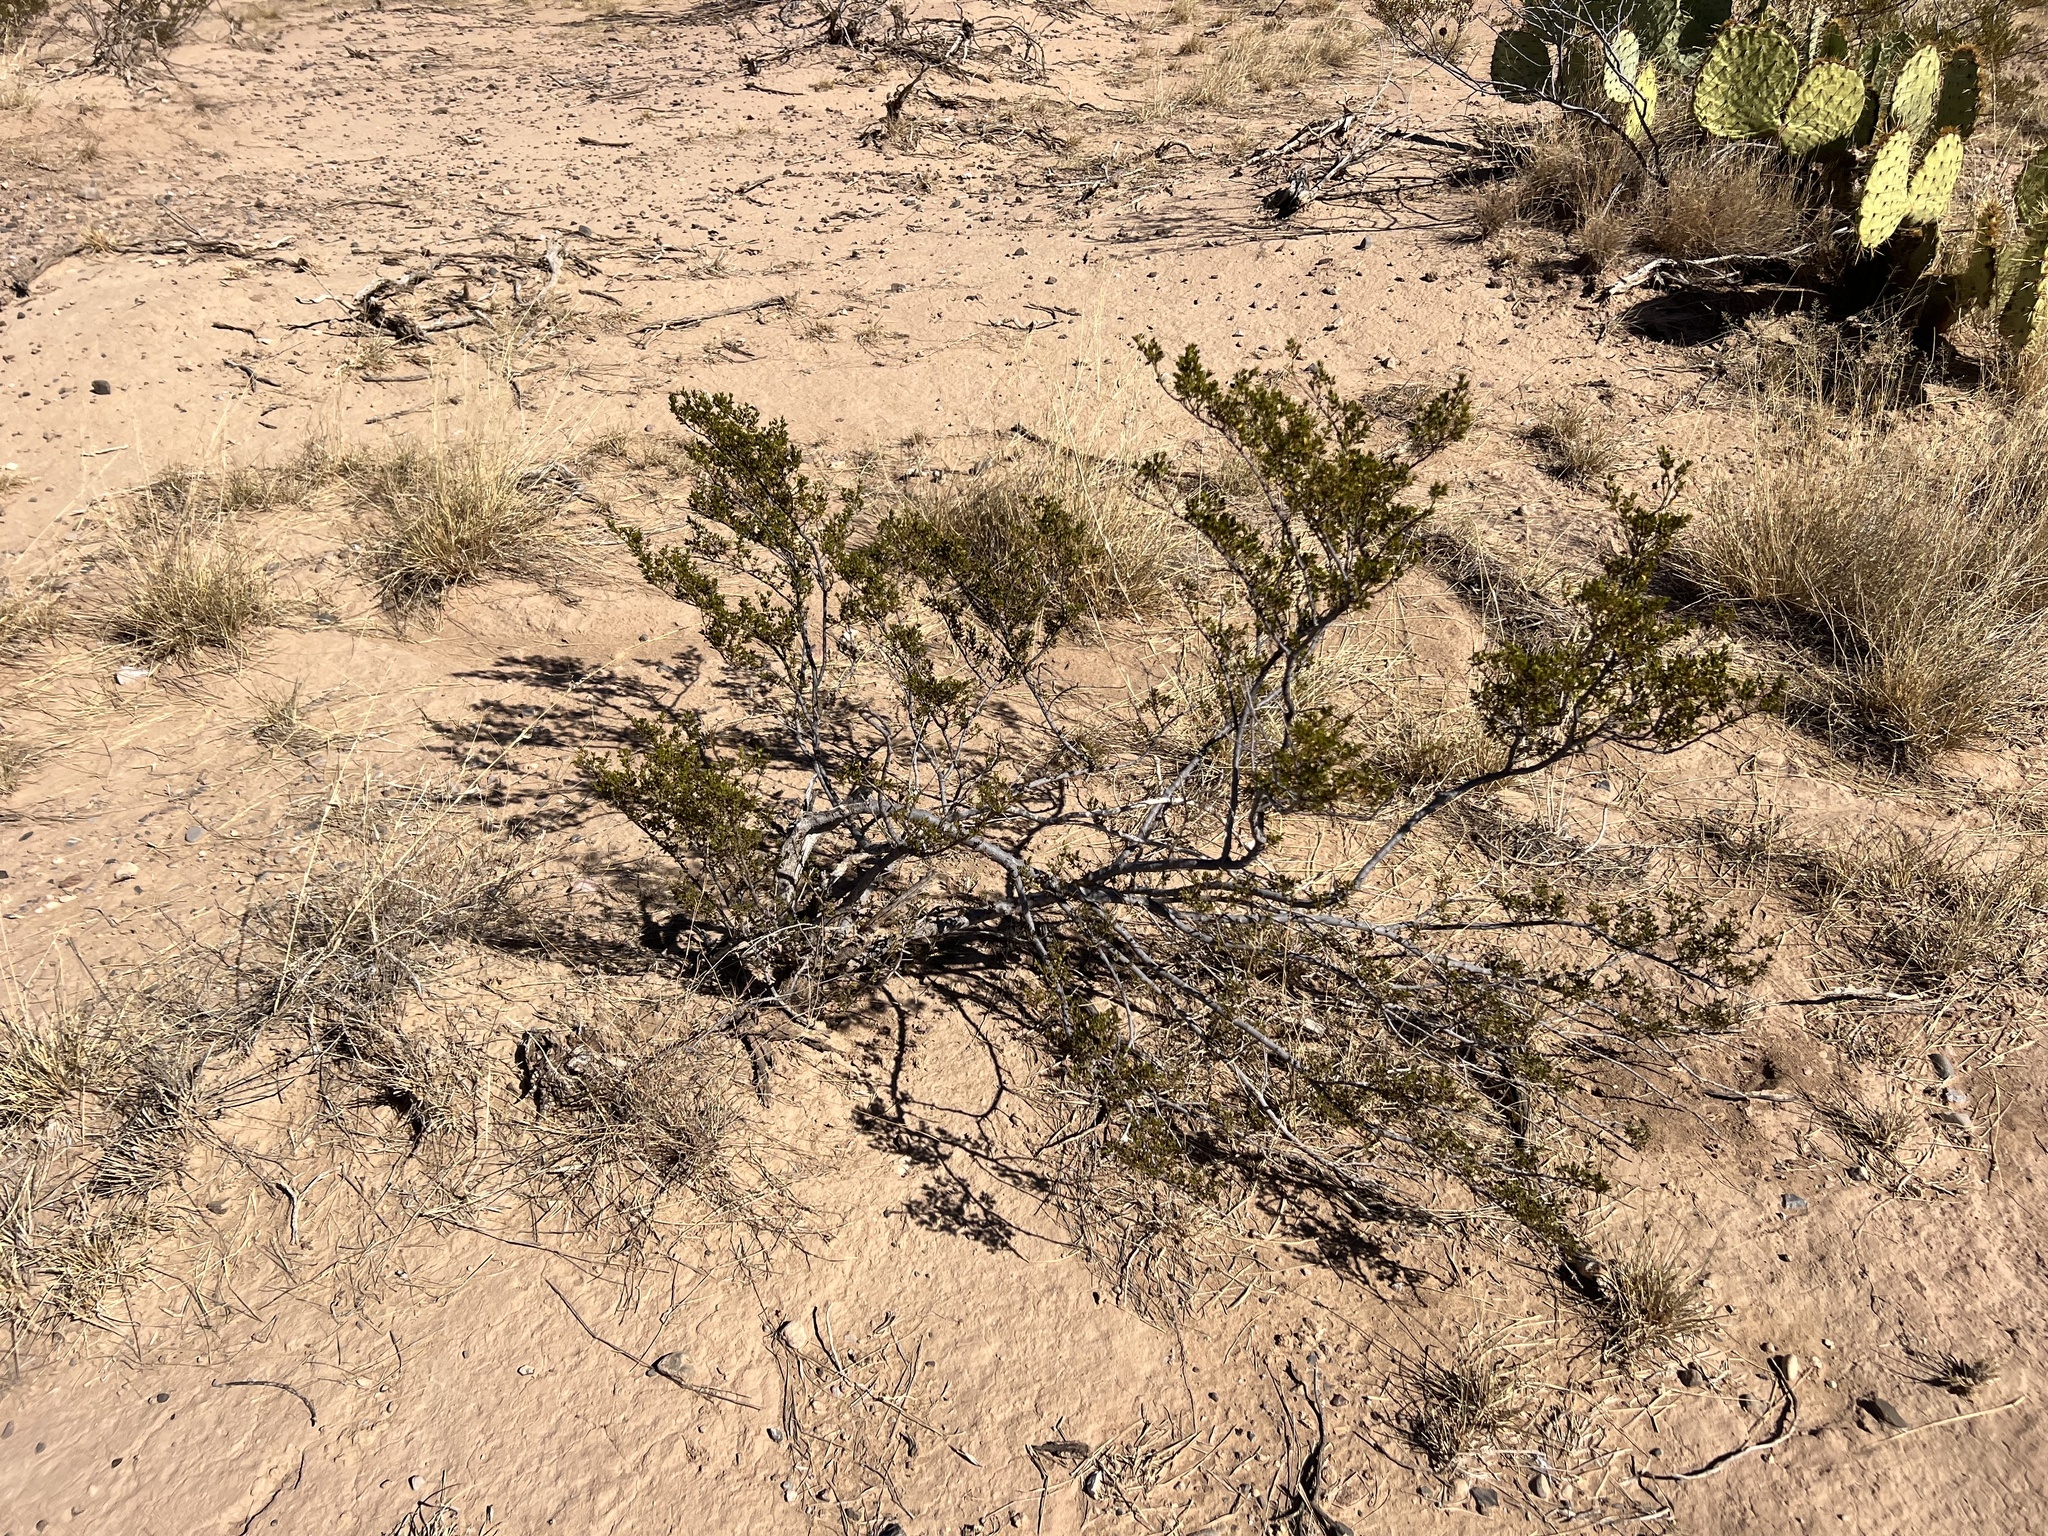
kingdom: Plantae
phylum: Tracheophyta
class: Magnoliopsida
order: Zygophyllales
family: Zygophyllaceae
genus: Larrea
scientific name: Larrea tridentata
